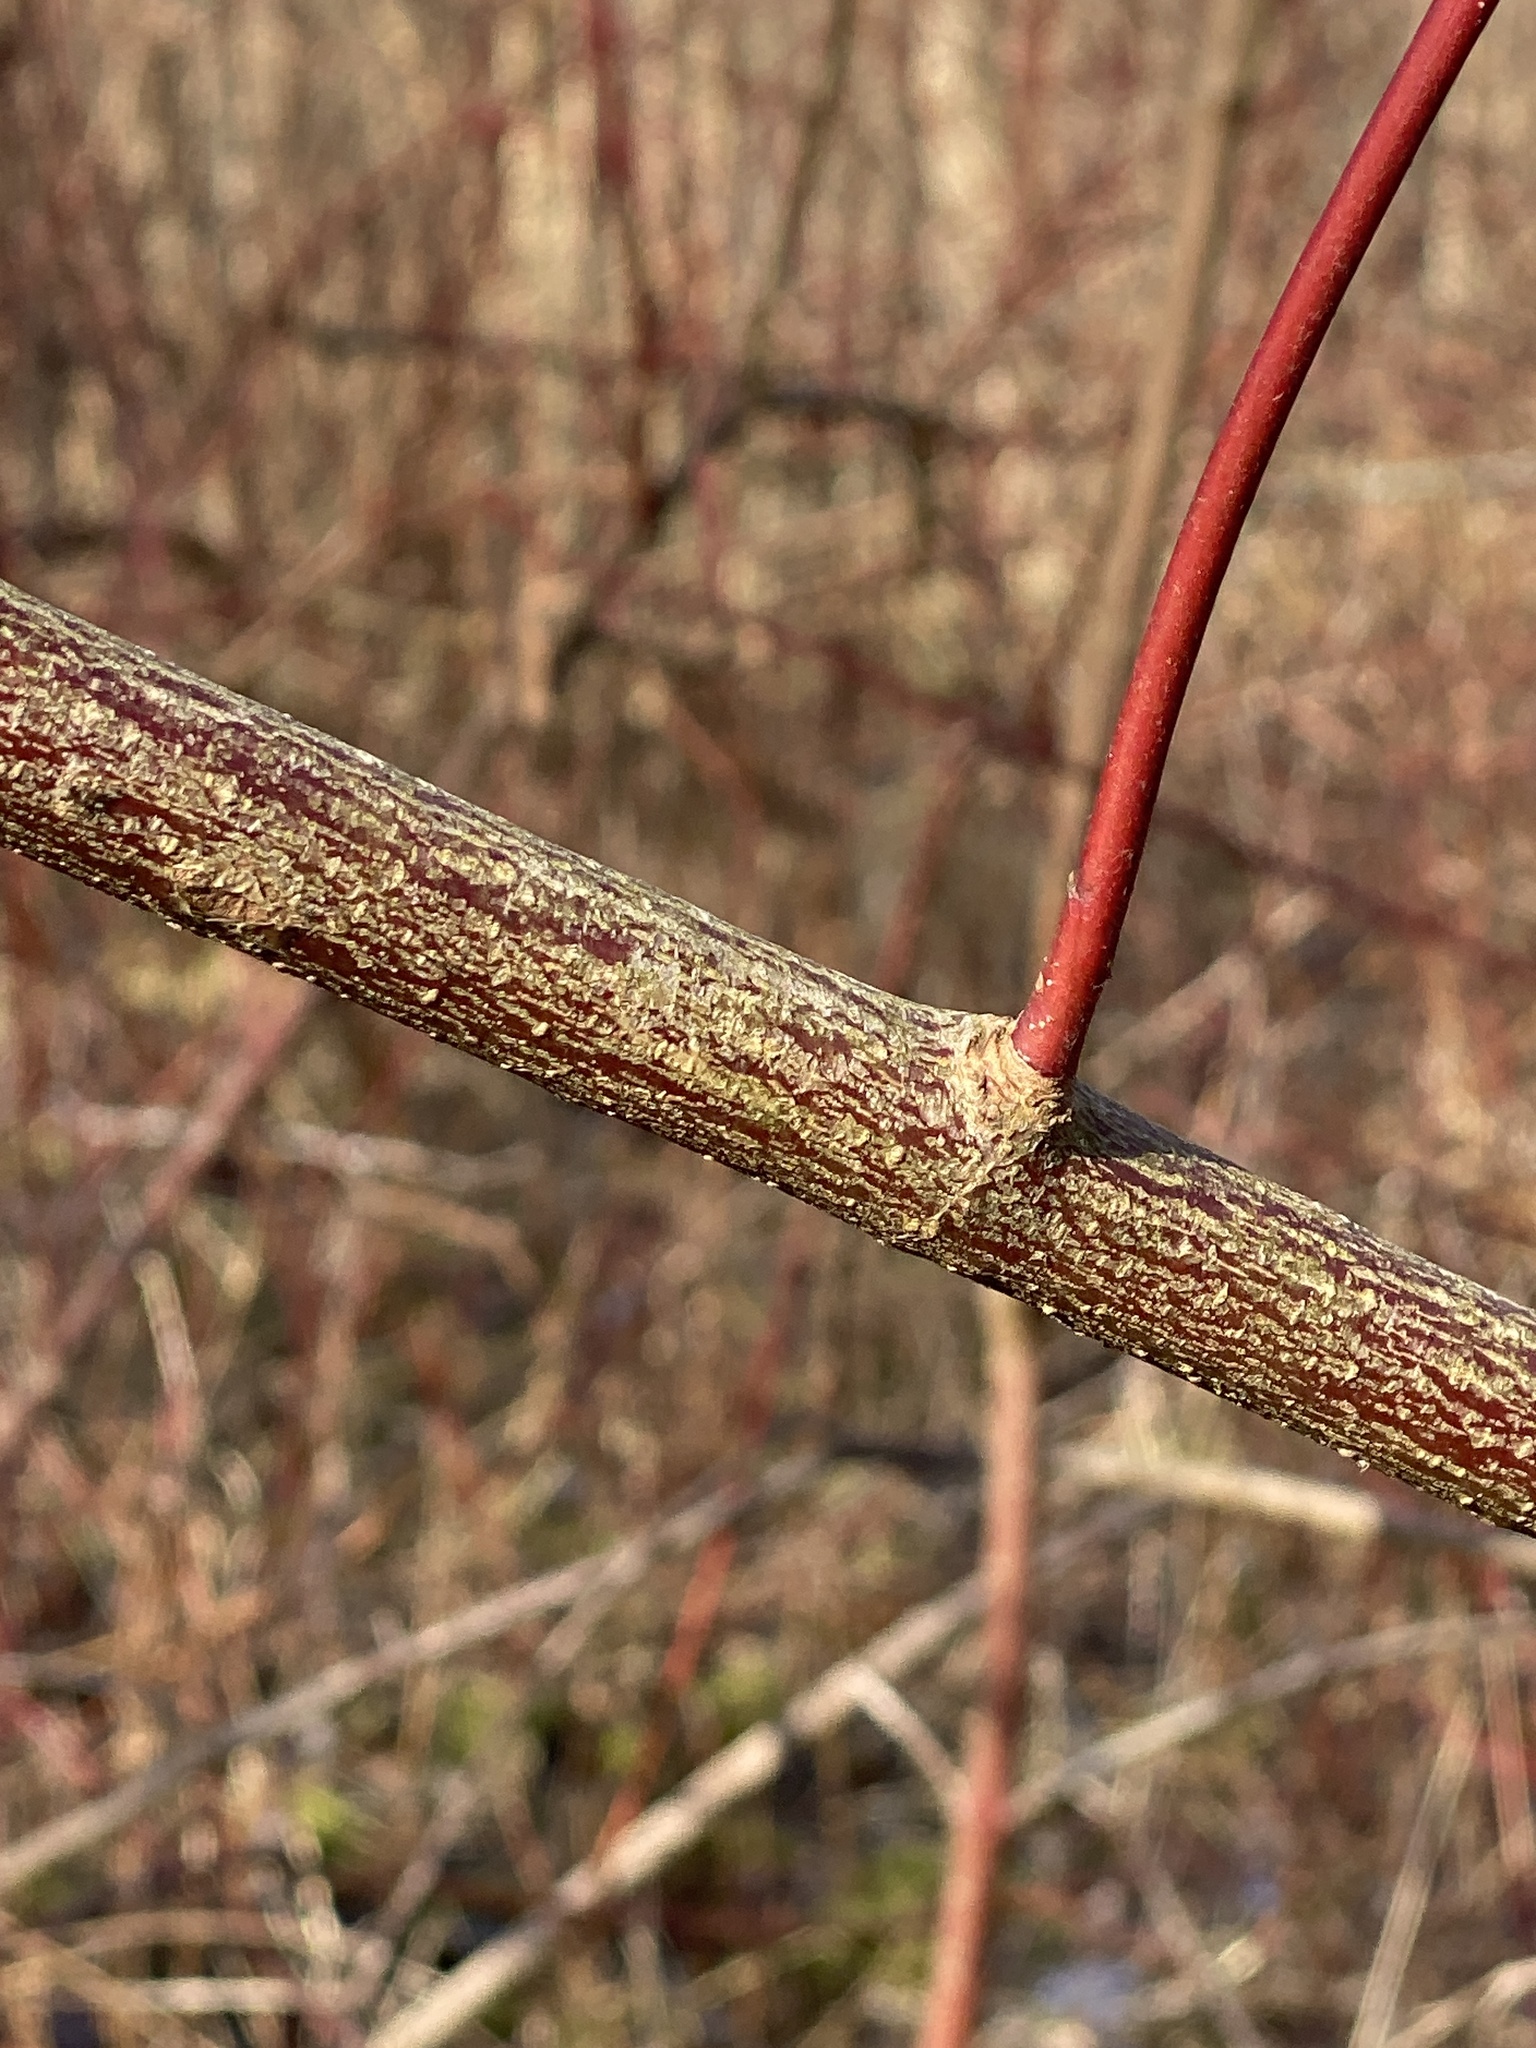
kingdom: Plantae
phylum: Tracheophyta
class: Magnoliopsida
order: Cornales
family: Cornaceae
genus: Cornus
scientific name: Cornus amomum
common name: Silky dogwood
